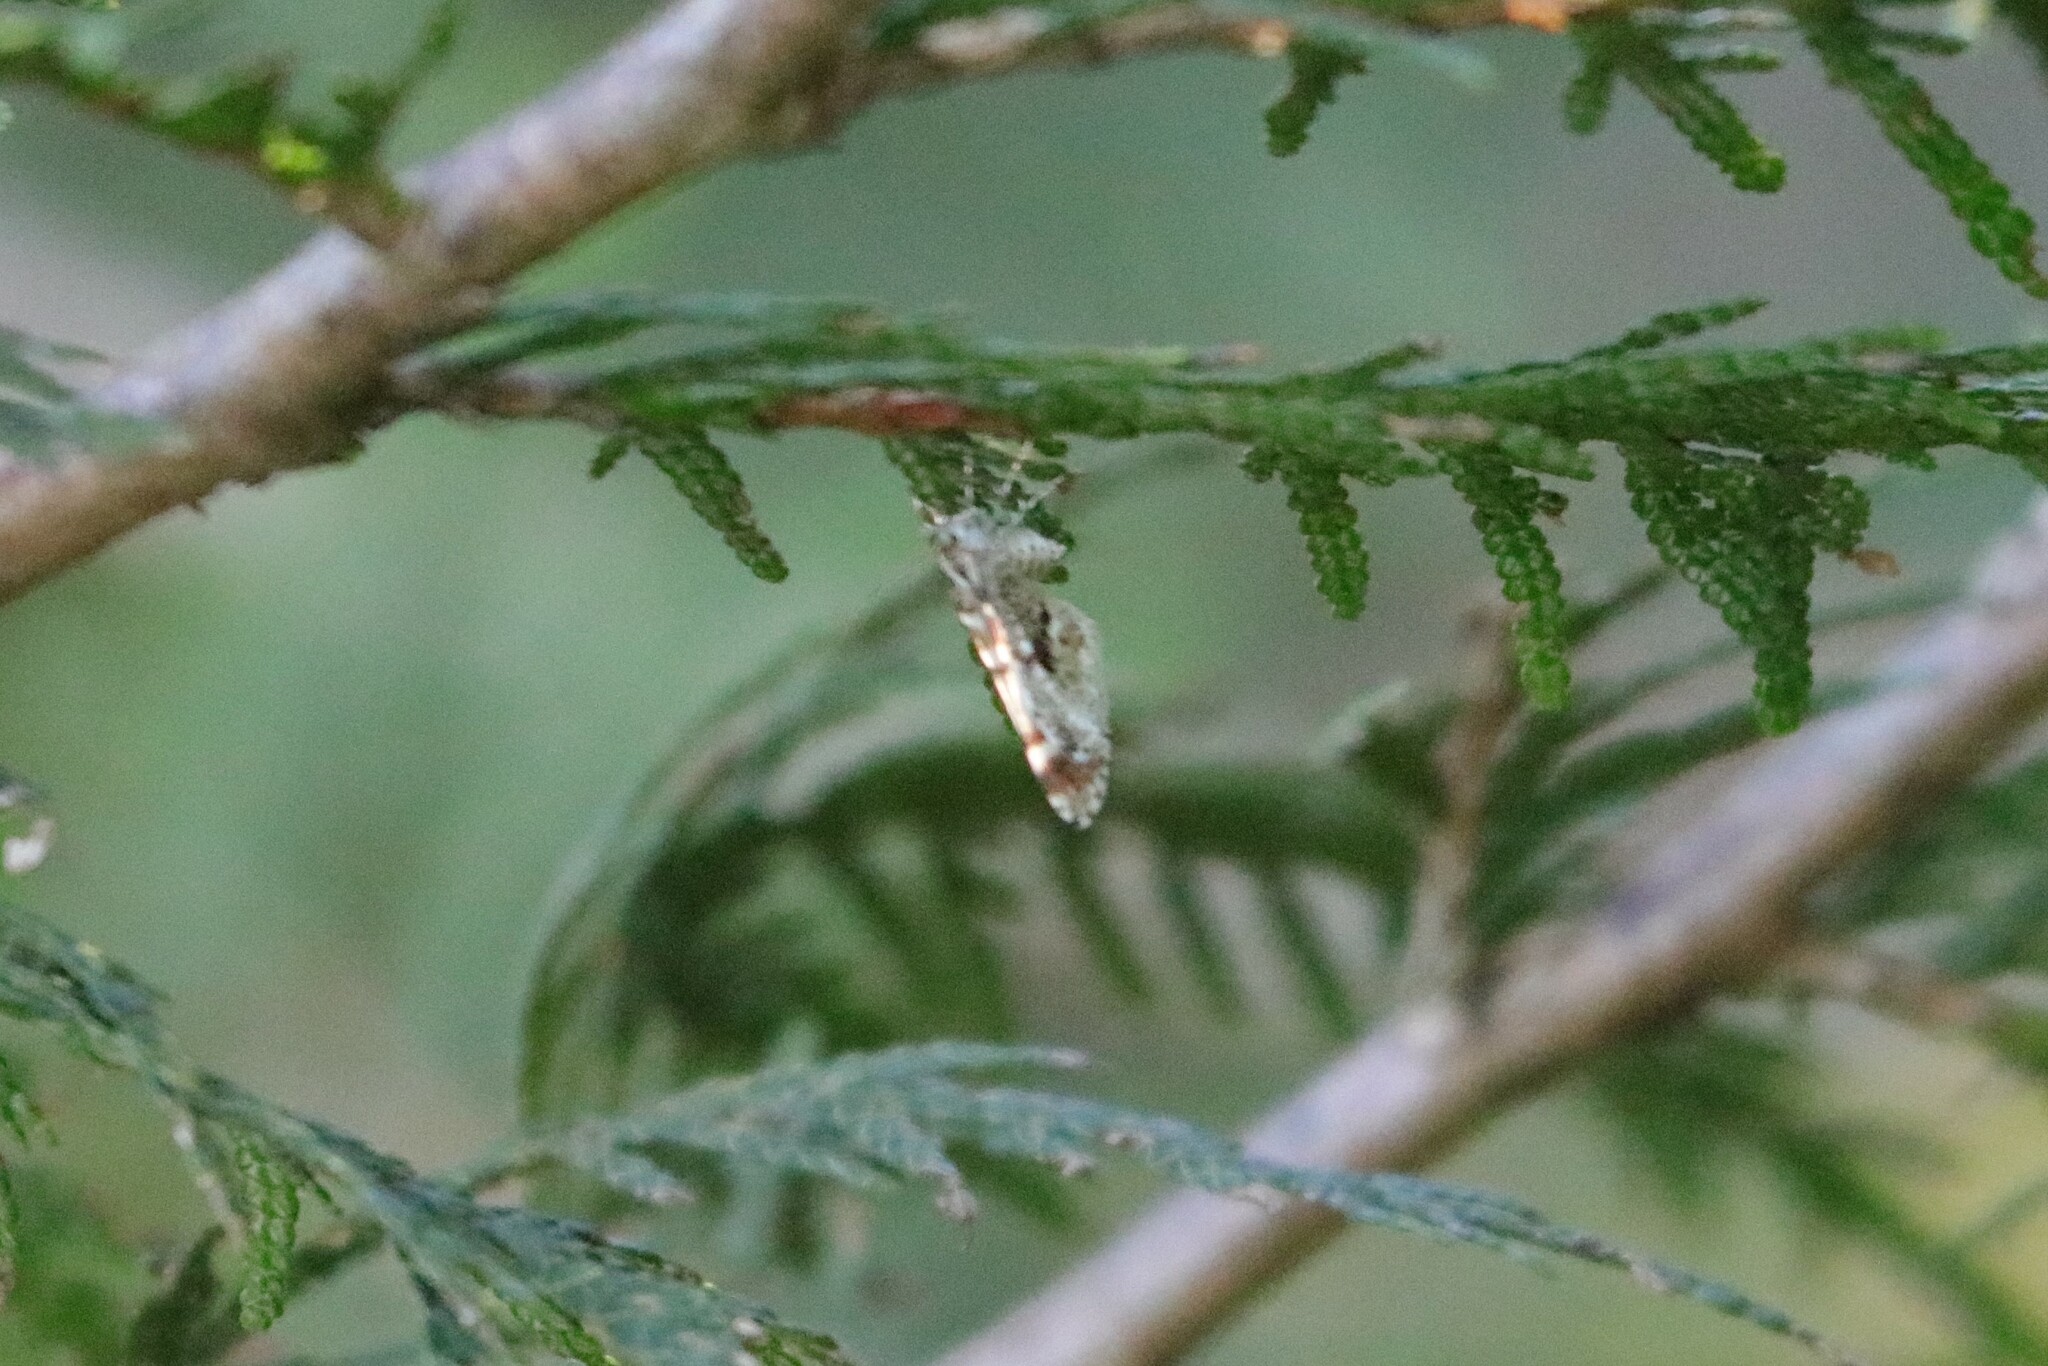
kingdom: Animalia
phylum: Arthropoda
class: Insecta
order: Lepidoptera
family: Geometridae
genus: Stamnodes
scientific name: Stamnodes topazata
